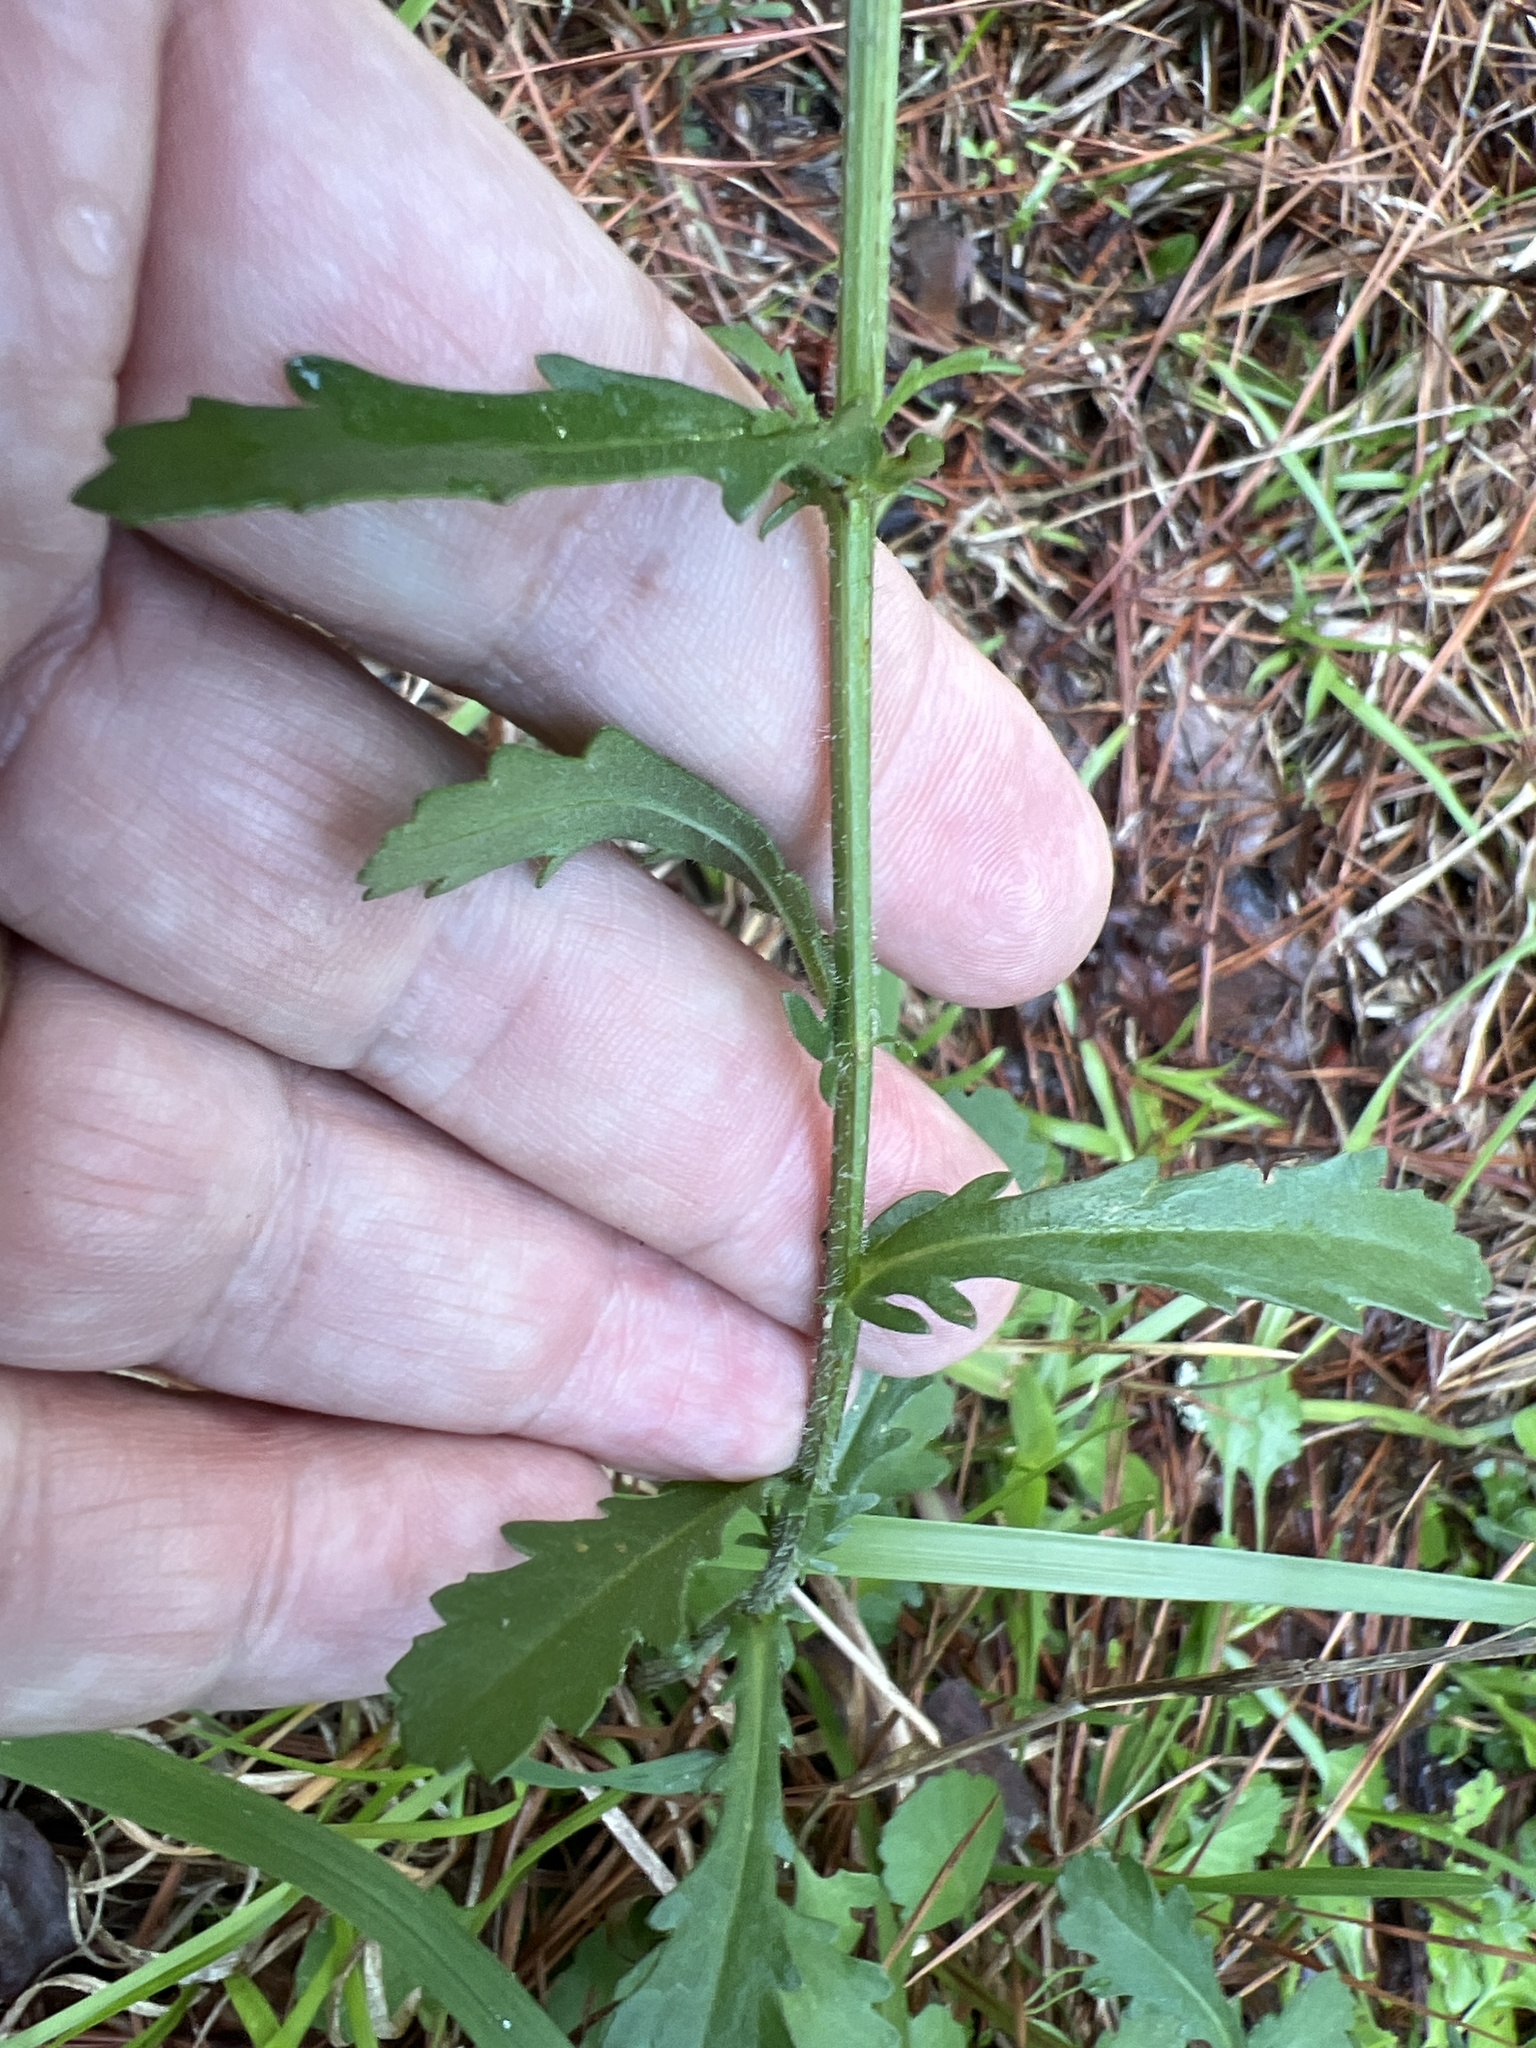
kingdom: Plantae
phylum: Tracheophyta
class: Magnoliopsida
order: Asterales
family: Asteraceae
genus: Leucanthemum
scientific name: Leucanthemum vulgare
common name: Oxeye daisy
